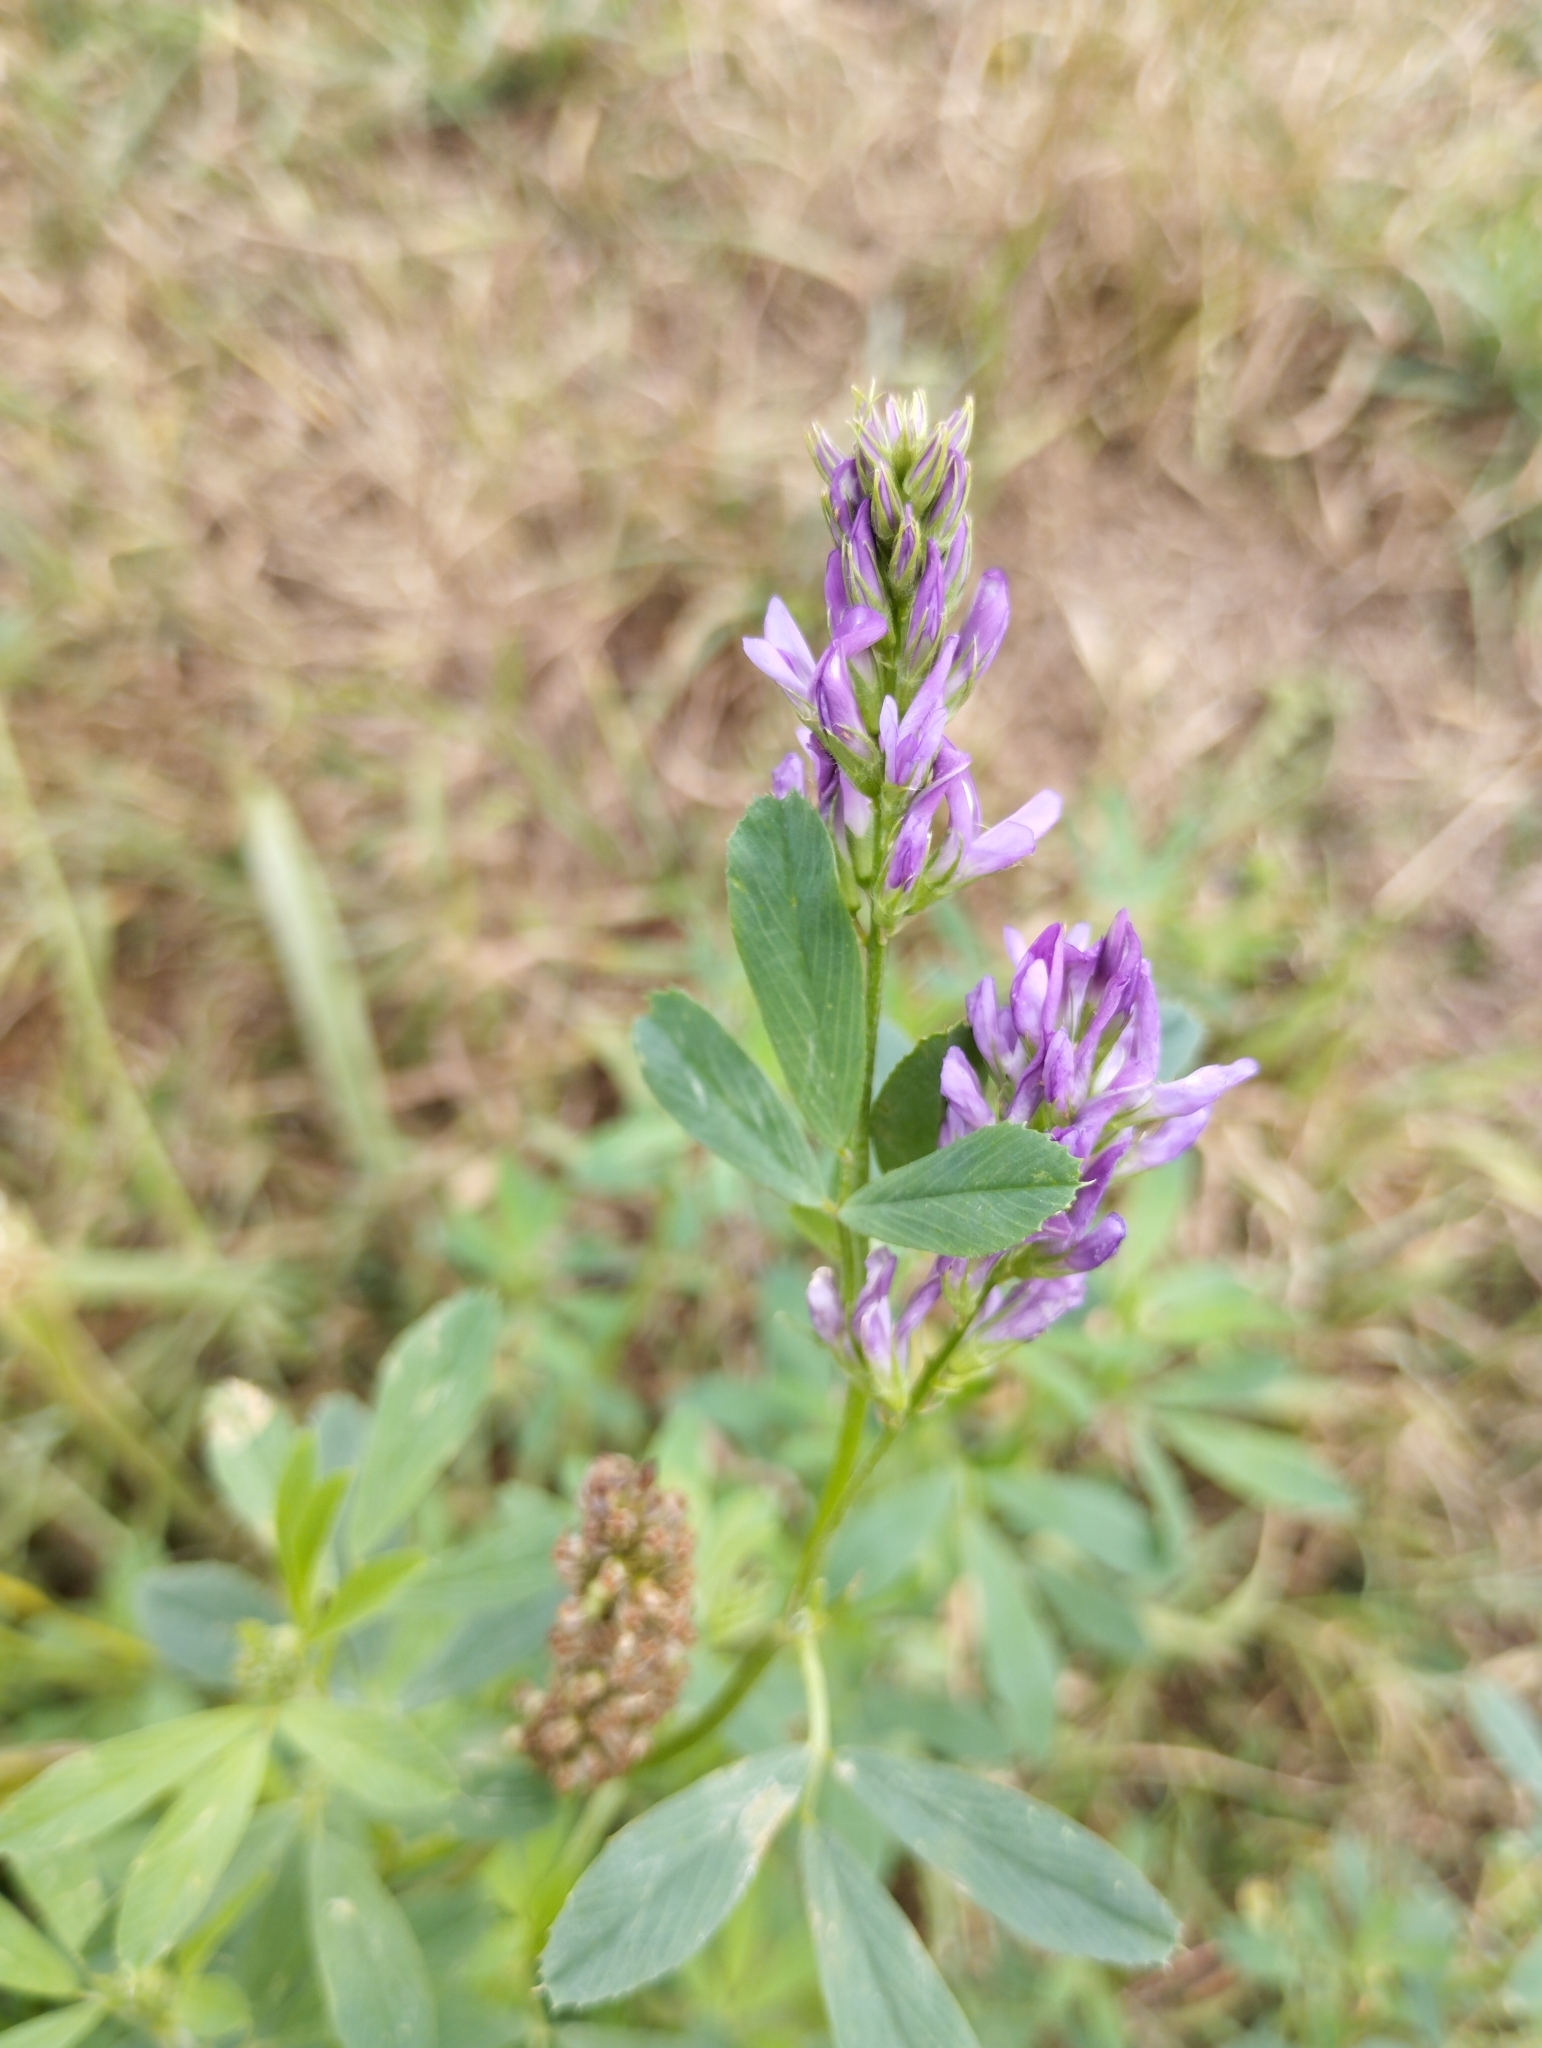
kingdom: Plantae
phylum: Tracheophyta
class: Magnoliopsida
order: Fabales
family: Fabaceae
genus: Medicago
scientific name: Medicago sativa
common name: Alfalfa
